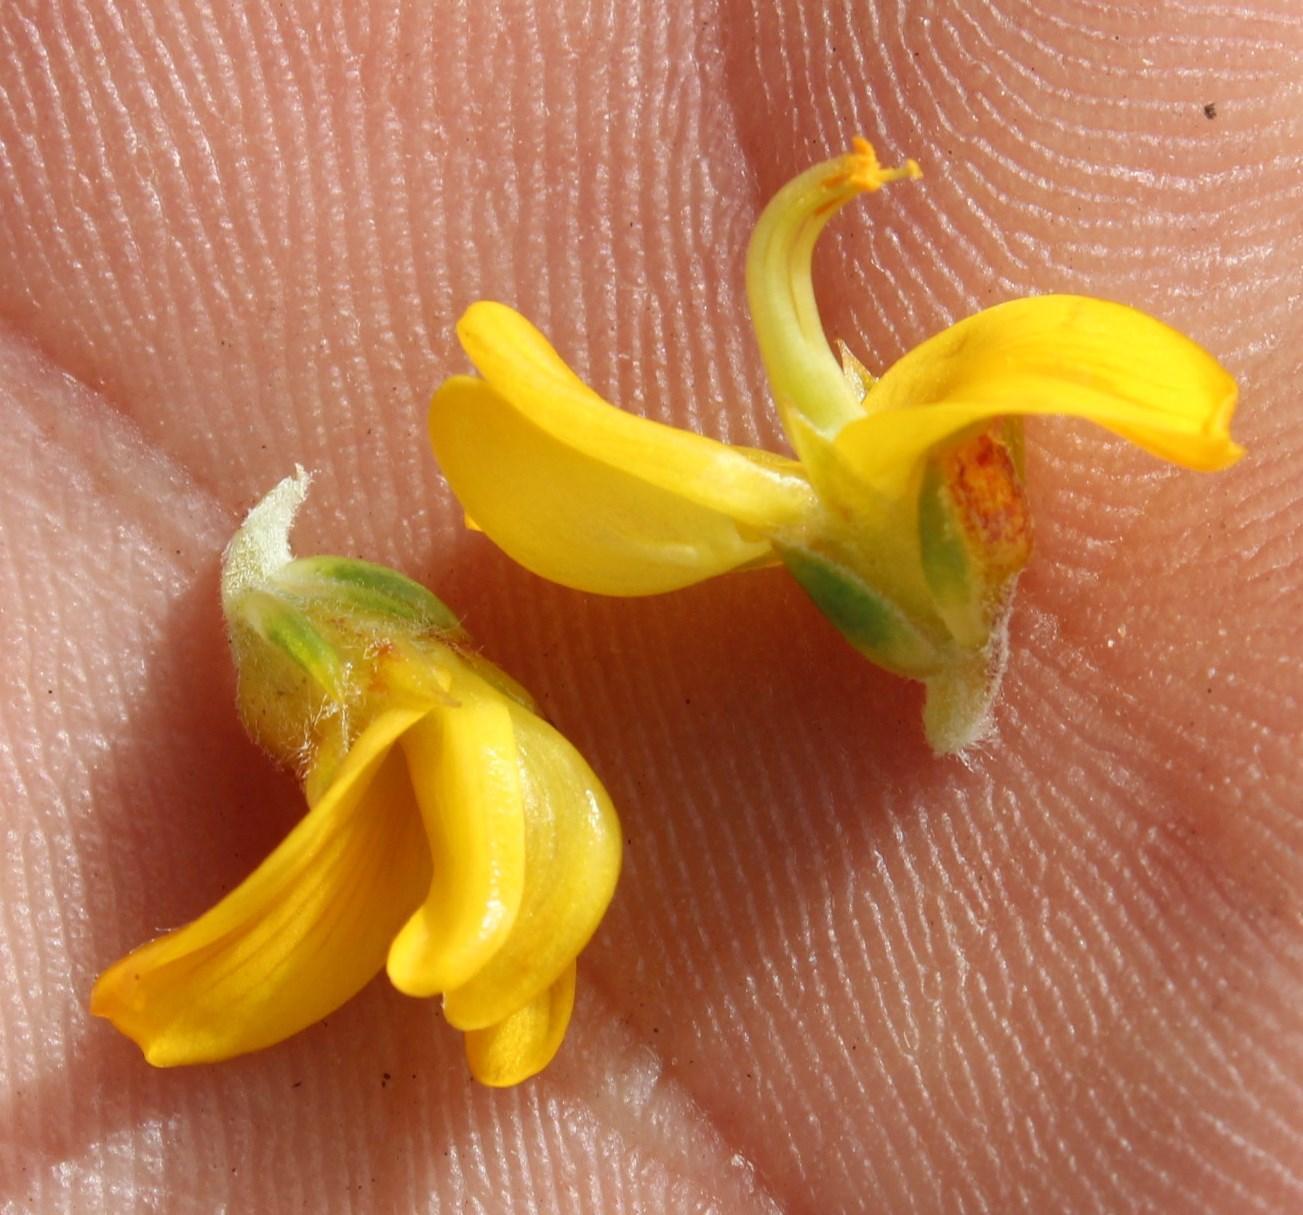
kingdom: Plantae
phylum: Tracheophyta
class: Magnoliopsida
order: Fabales
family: Fabaceae
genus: Aspalathus
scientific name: Aspalathus subulata
